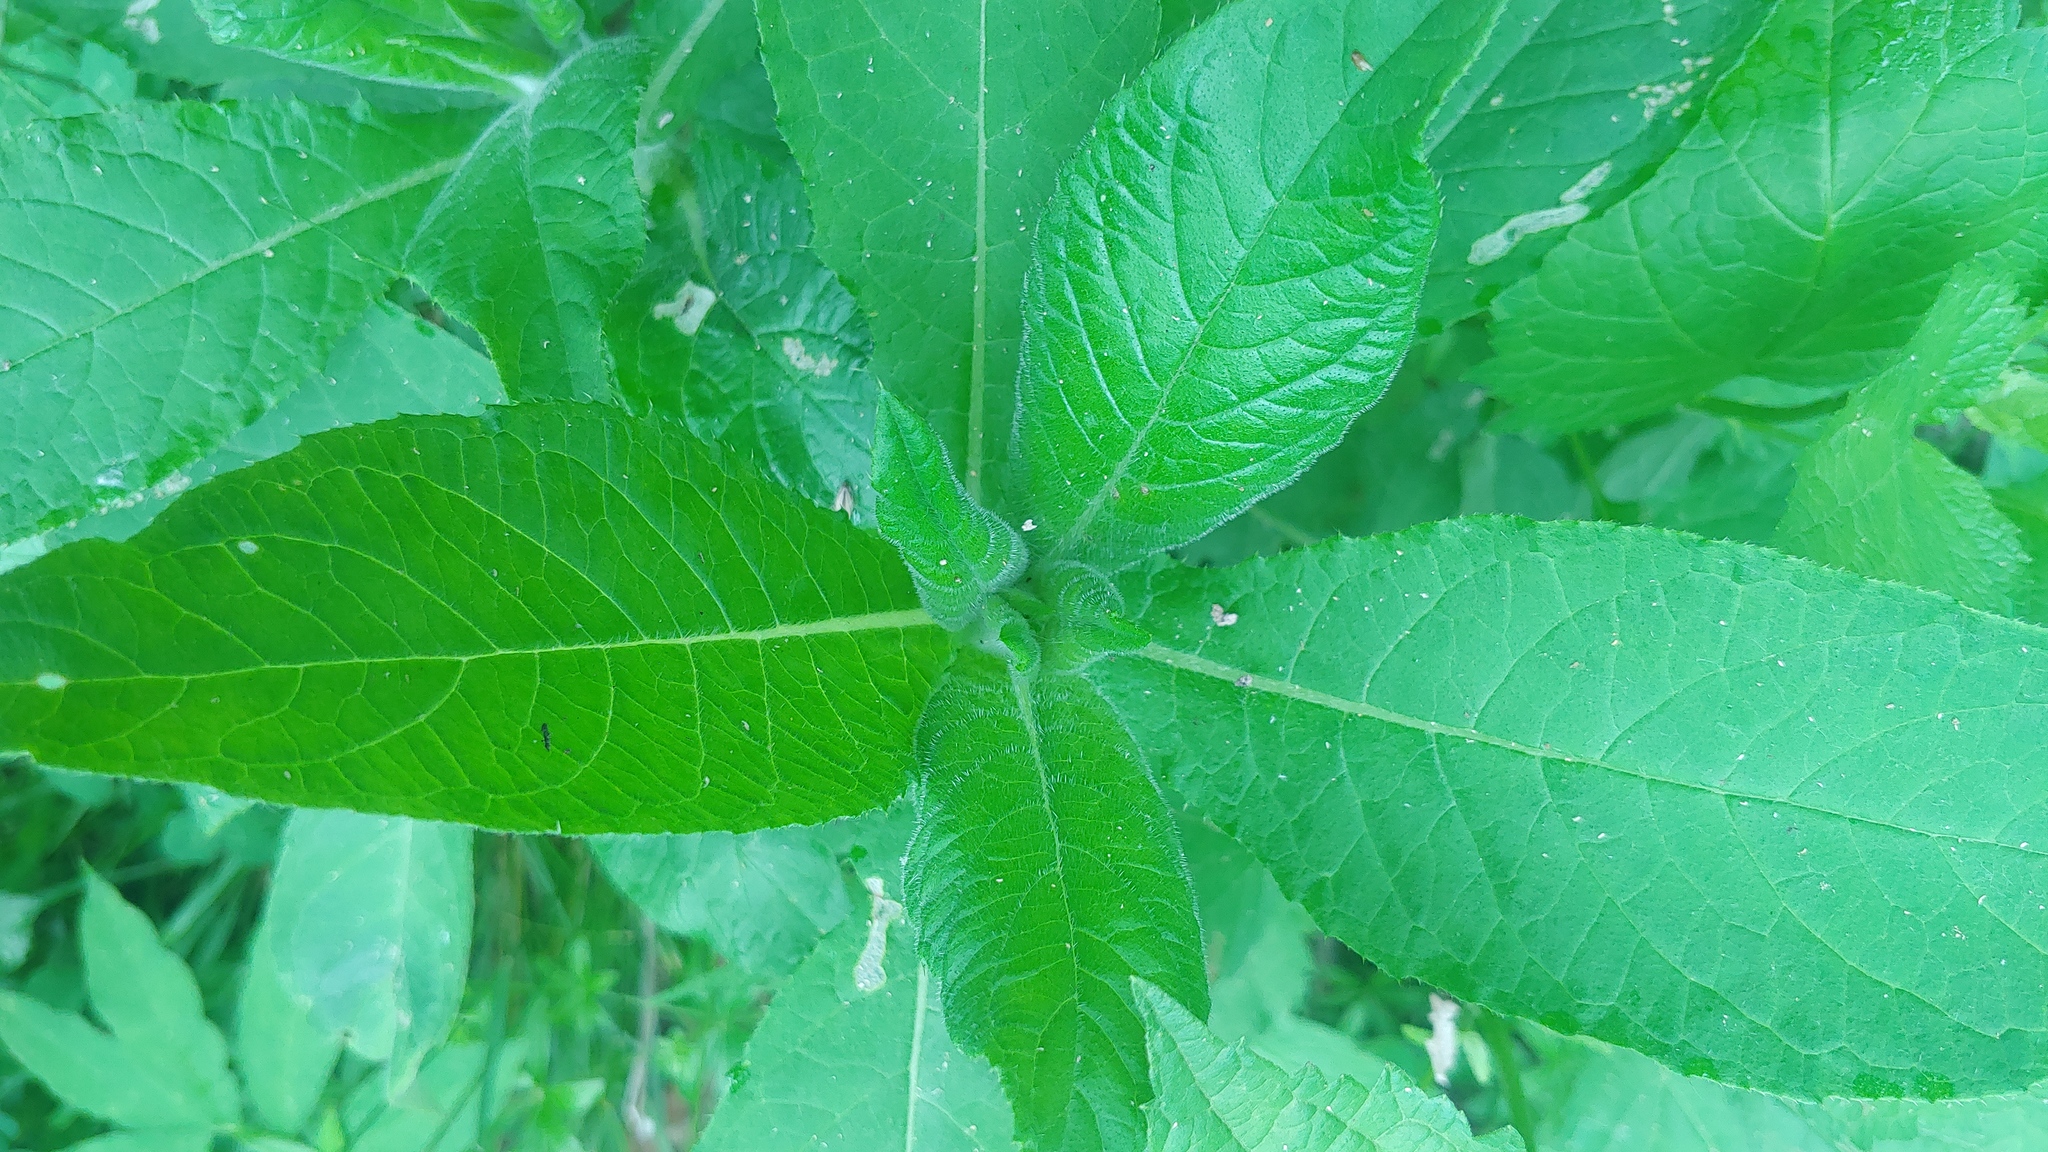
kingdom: Plantae
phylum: Tracheophyta
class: Magnoliopsida
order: Asterales
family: Asteraceae
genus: Cirsium
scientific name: Cirsium altissimum
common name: Roadside thistle
